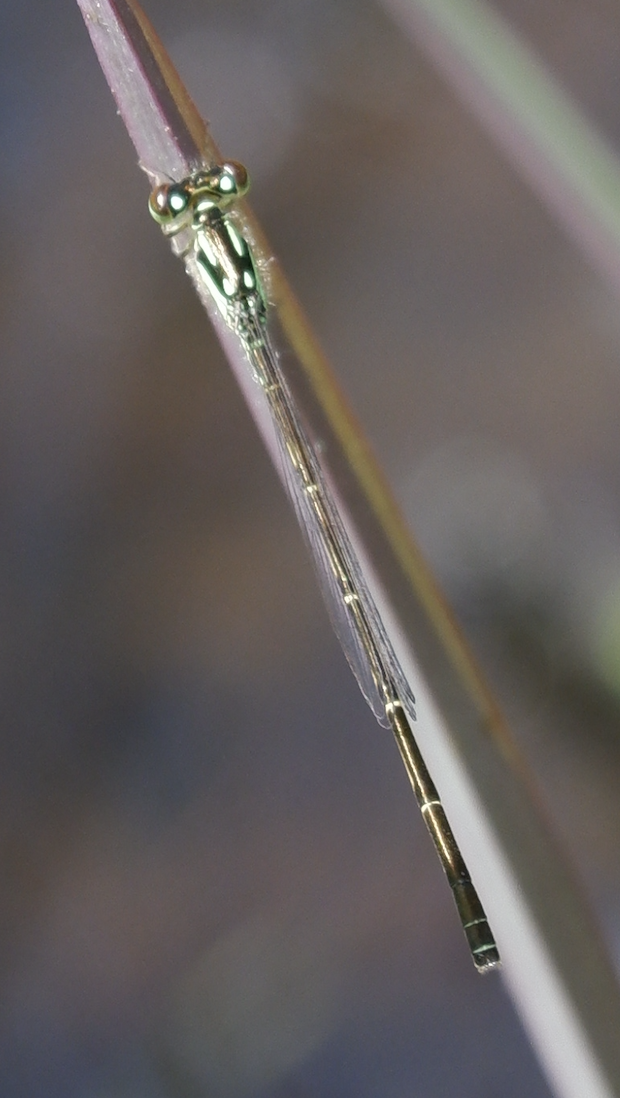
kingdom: Animalia
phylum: Arthropoda
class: Insecta
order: Odonata
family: Coenagrionidae
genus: Ischnura
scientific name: Ischnura posita
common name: Fragile forktail
